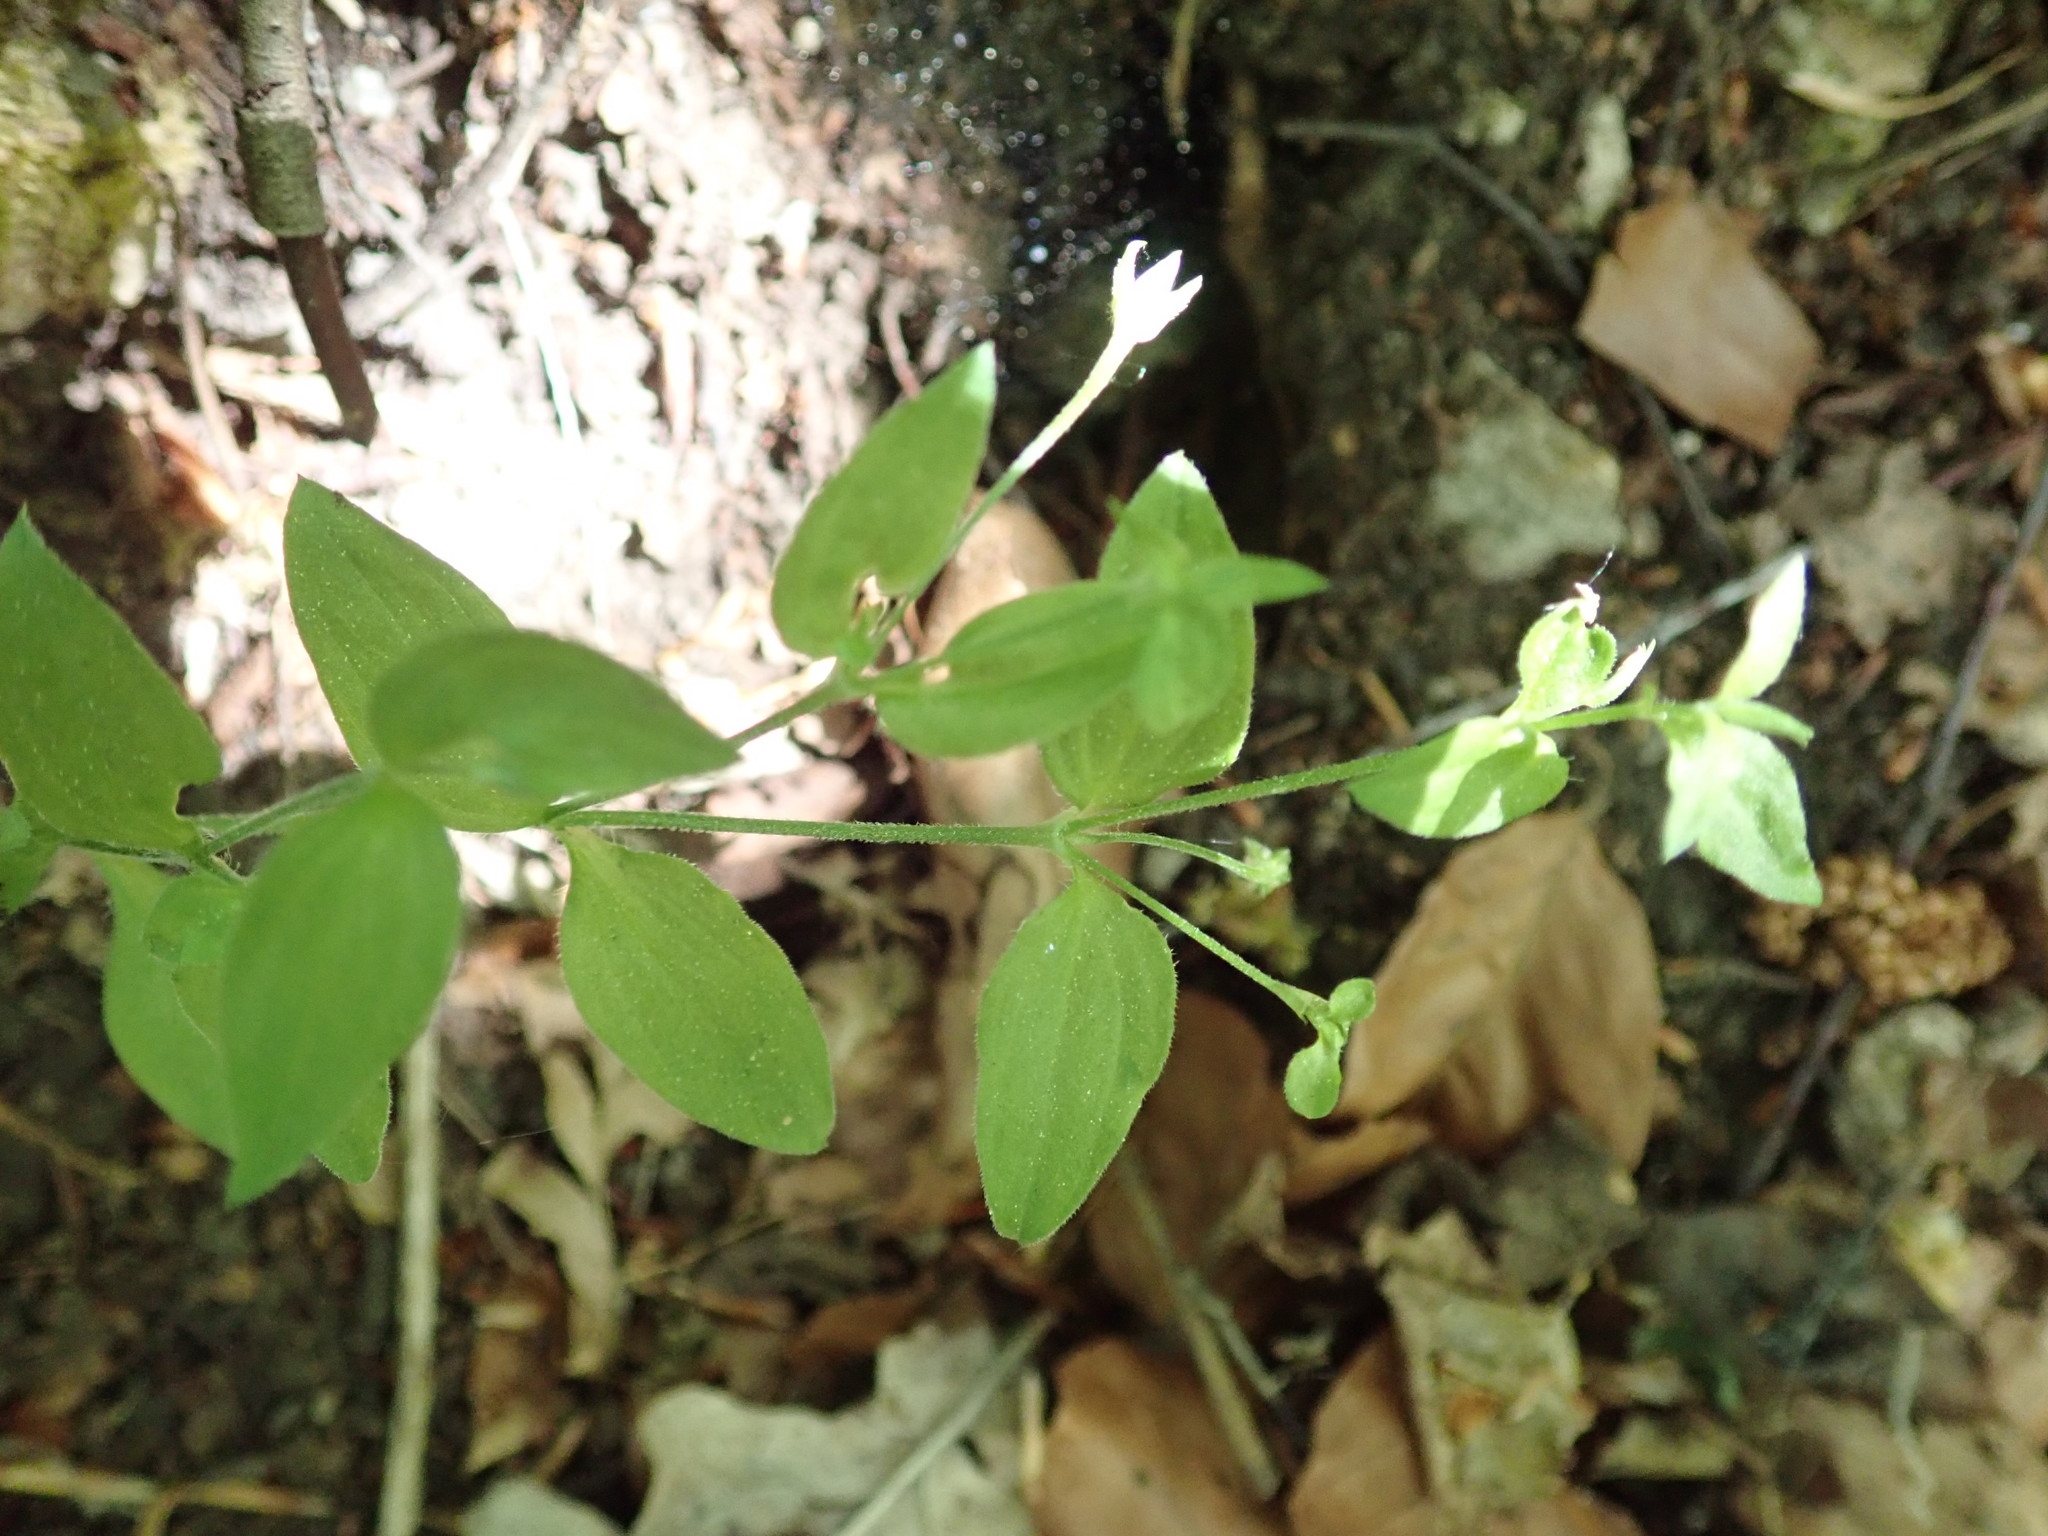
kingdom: Plantae
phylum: Tracheophyta
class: Magnoliopsida
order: Caryophyllales
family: Caryophyllaceae
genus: Moehringia
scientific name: Moehringia trinervia
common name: Three-nerved sandwort
